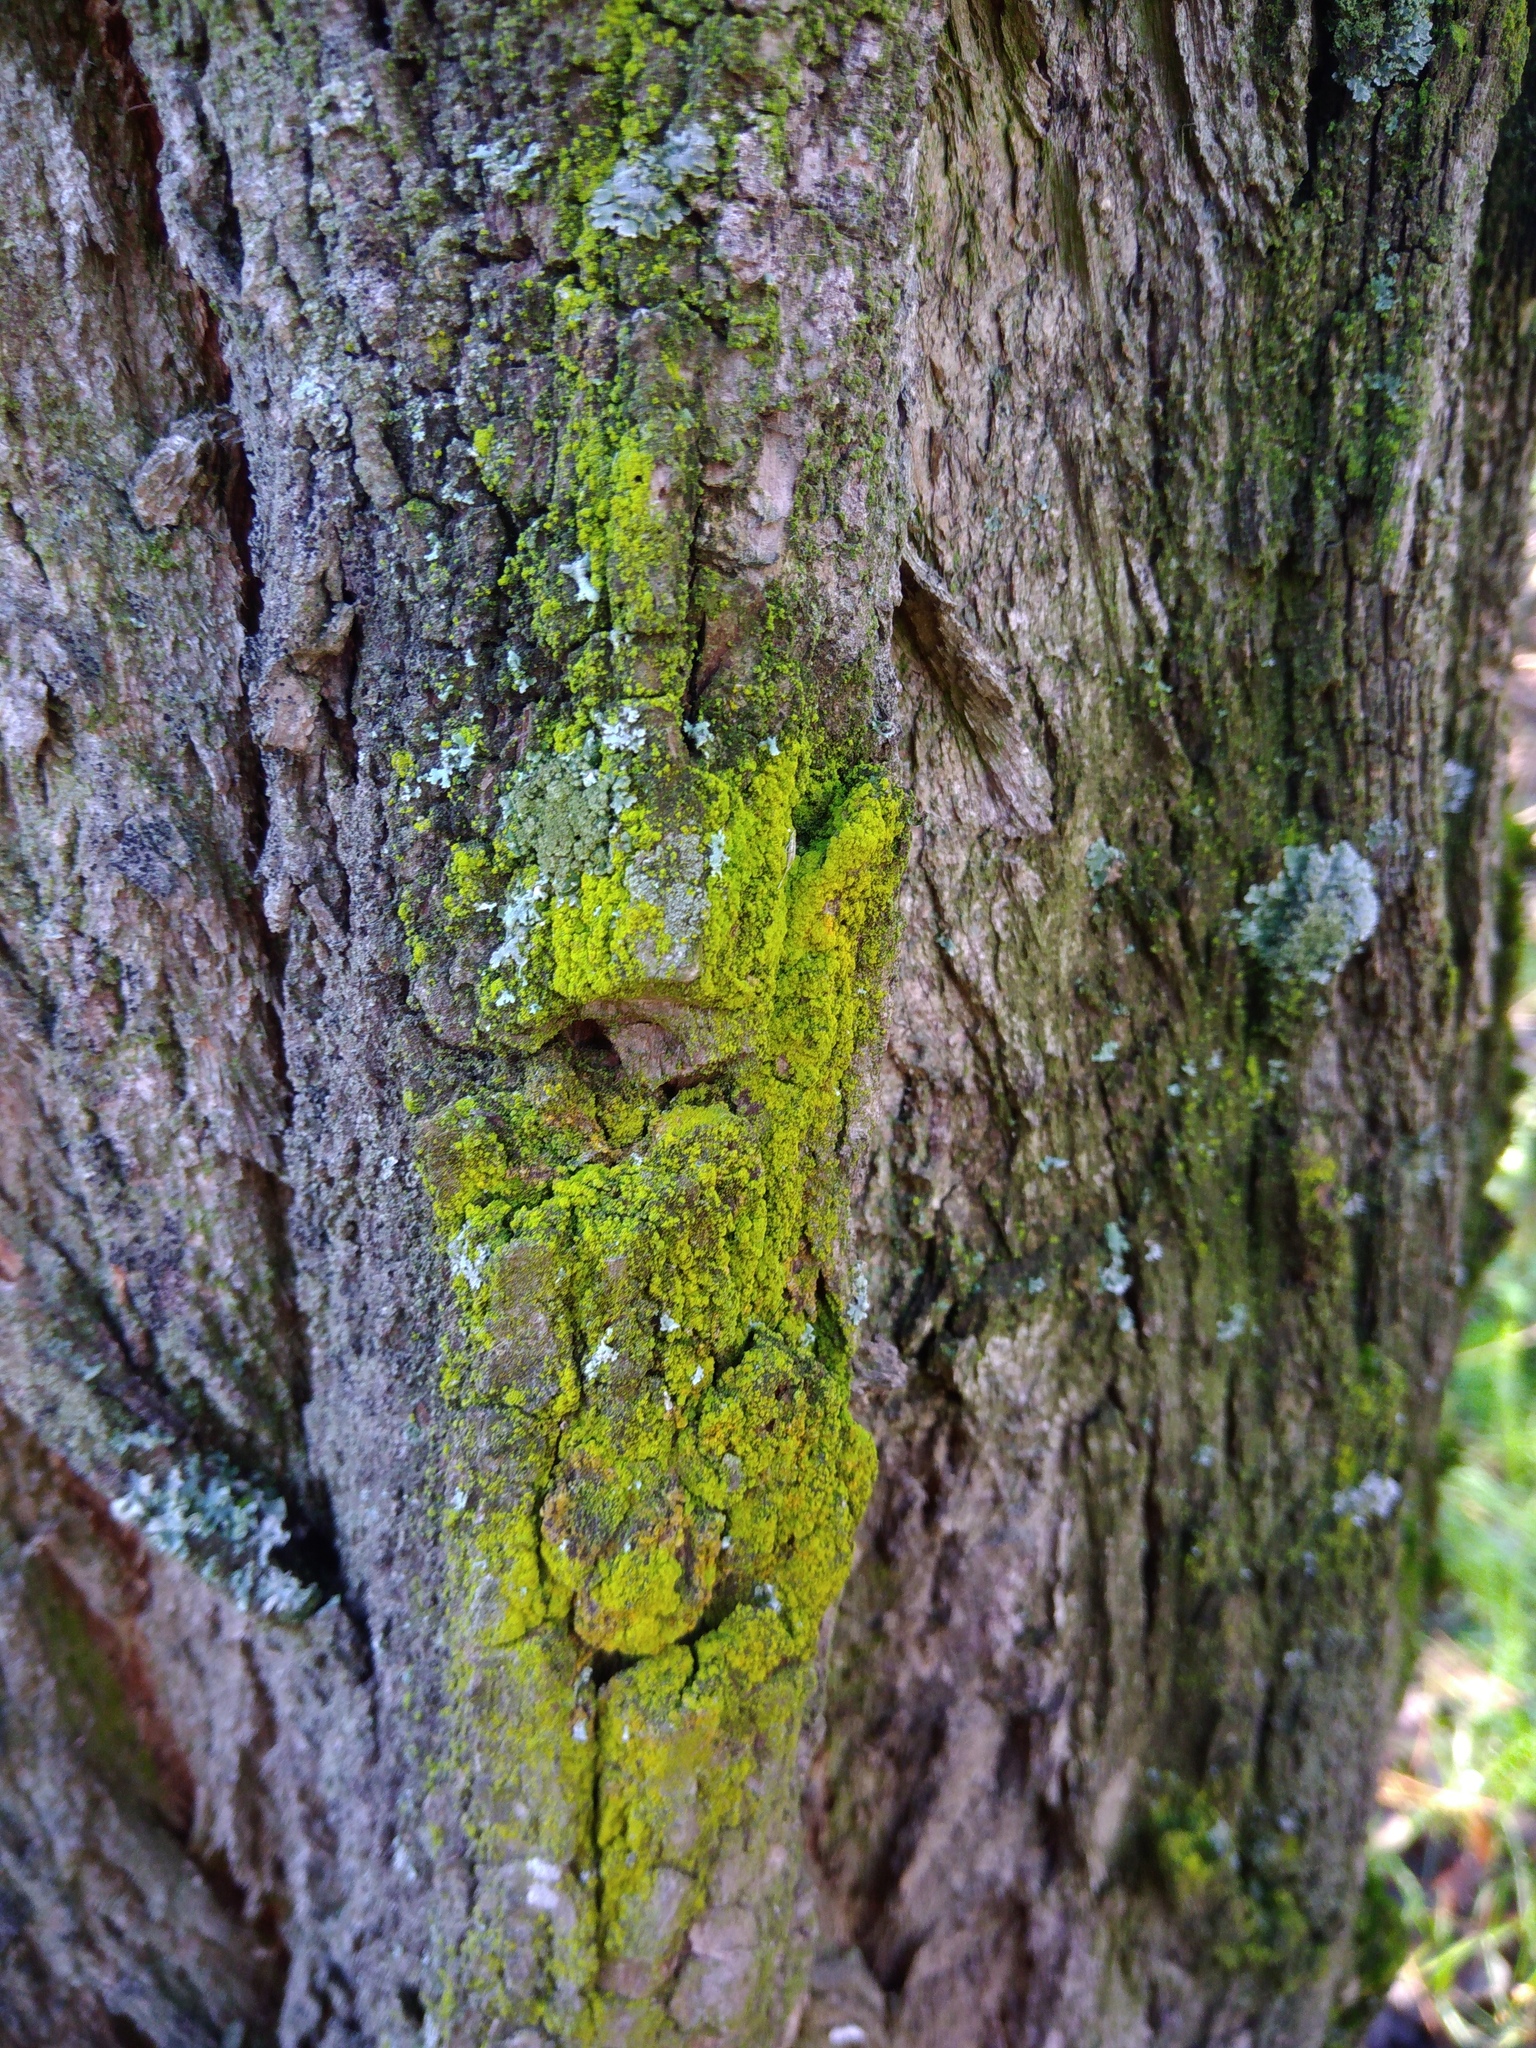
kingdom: Fungi
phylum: Ascomycota
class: Candelariomycetes
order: Candelariales
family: Candelariaceae
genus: Candelariella
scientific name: Candelariella efflorescens
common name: Powdery goldspeck
